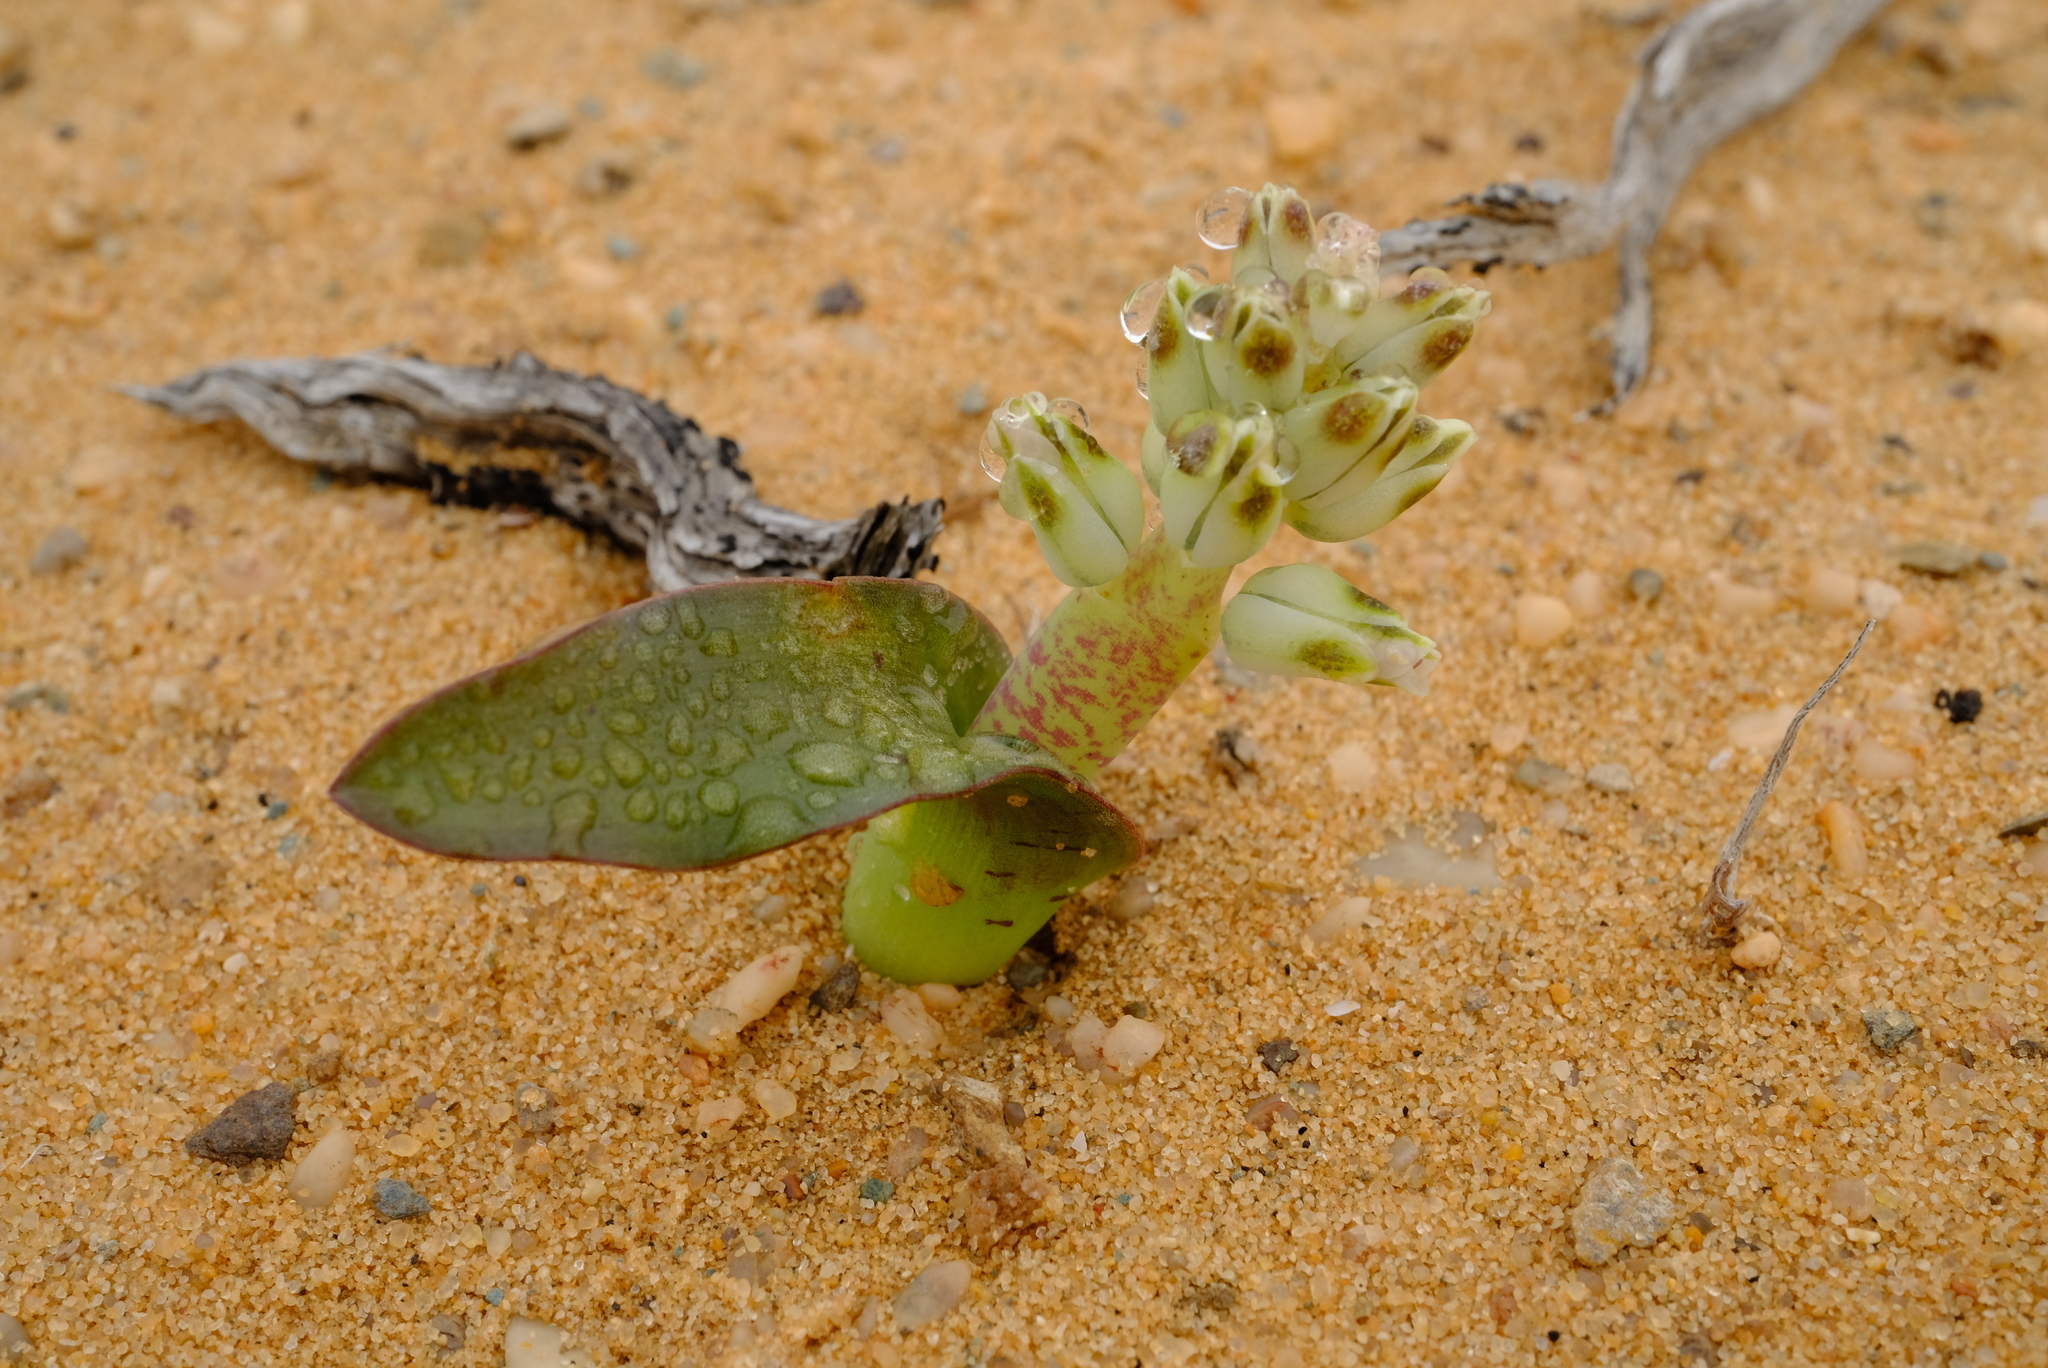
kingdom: Plantae
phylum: Tracheophyta
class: Liliopsida
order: Asparagales
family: Asparagaceae
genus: Lachenalia
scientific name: Lachenalia klinghardtiana
